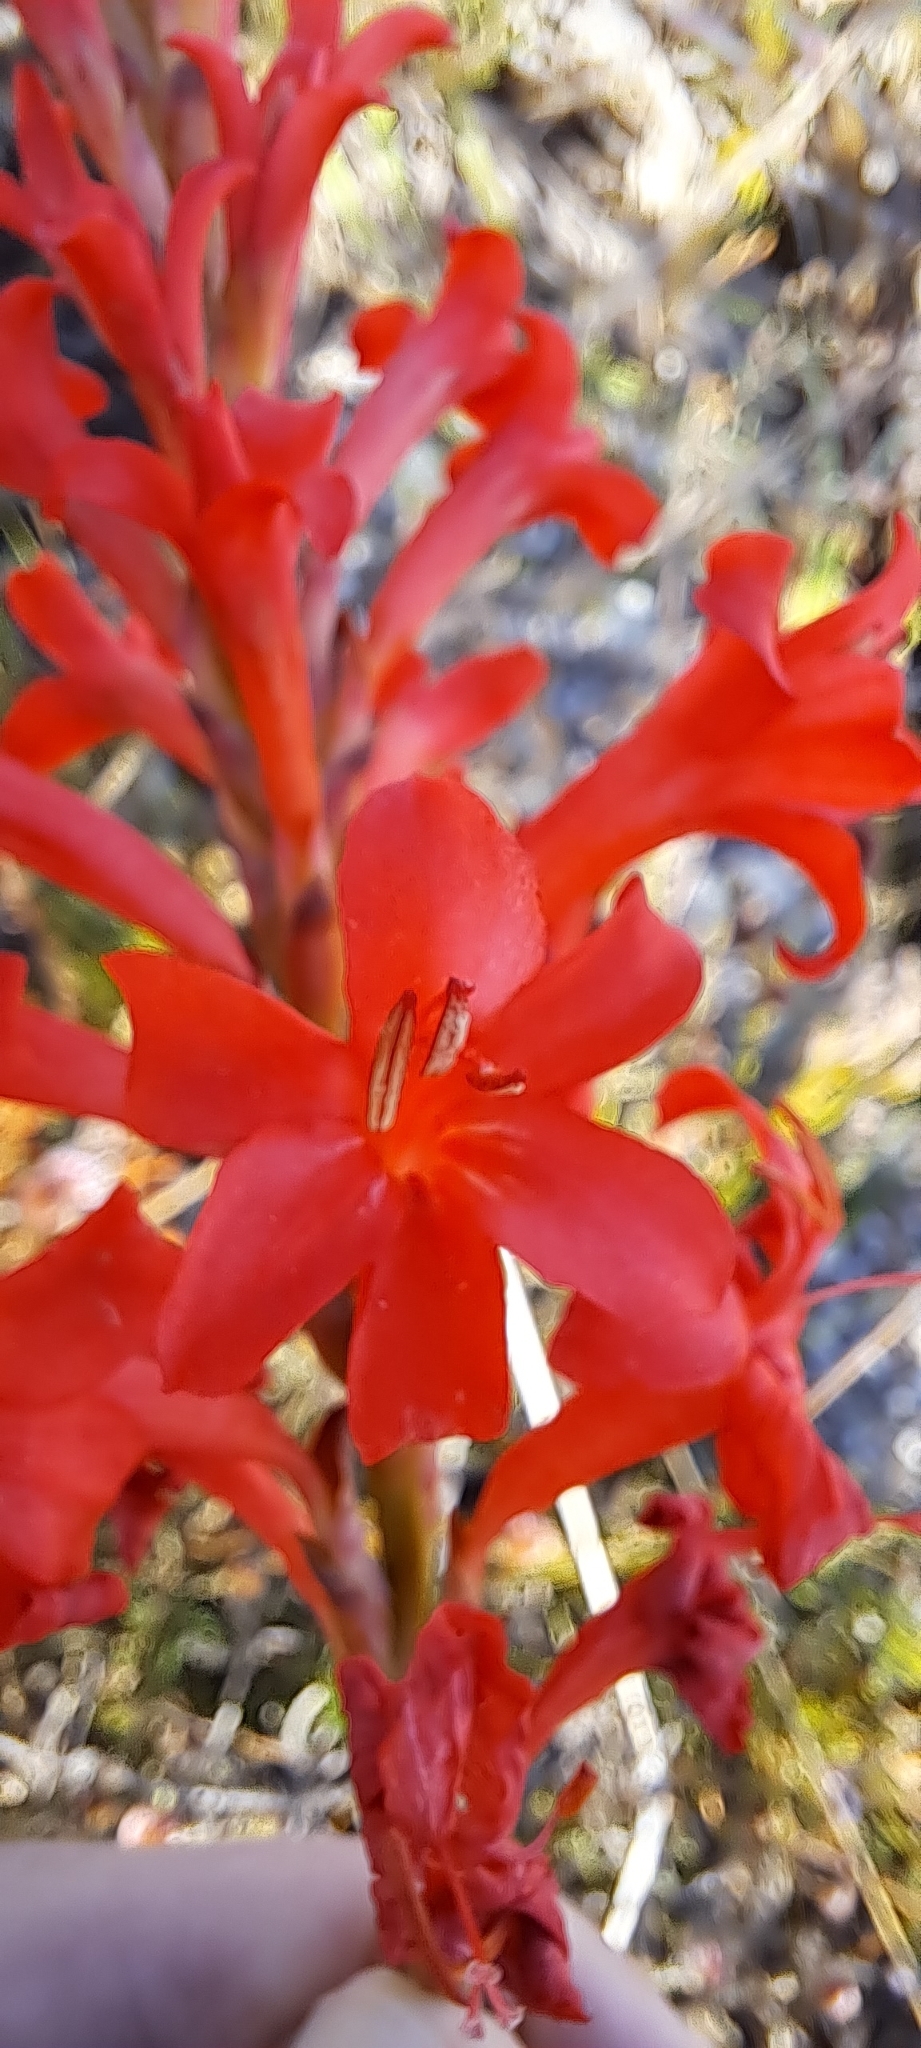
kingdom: Plantae
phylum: Tracheophyta
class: Liliopsida
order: Asparagales
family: Iridaceae
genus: Tritoniopsis
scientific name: Tritoniopsis triticea
